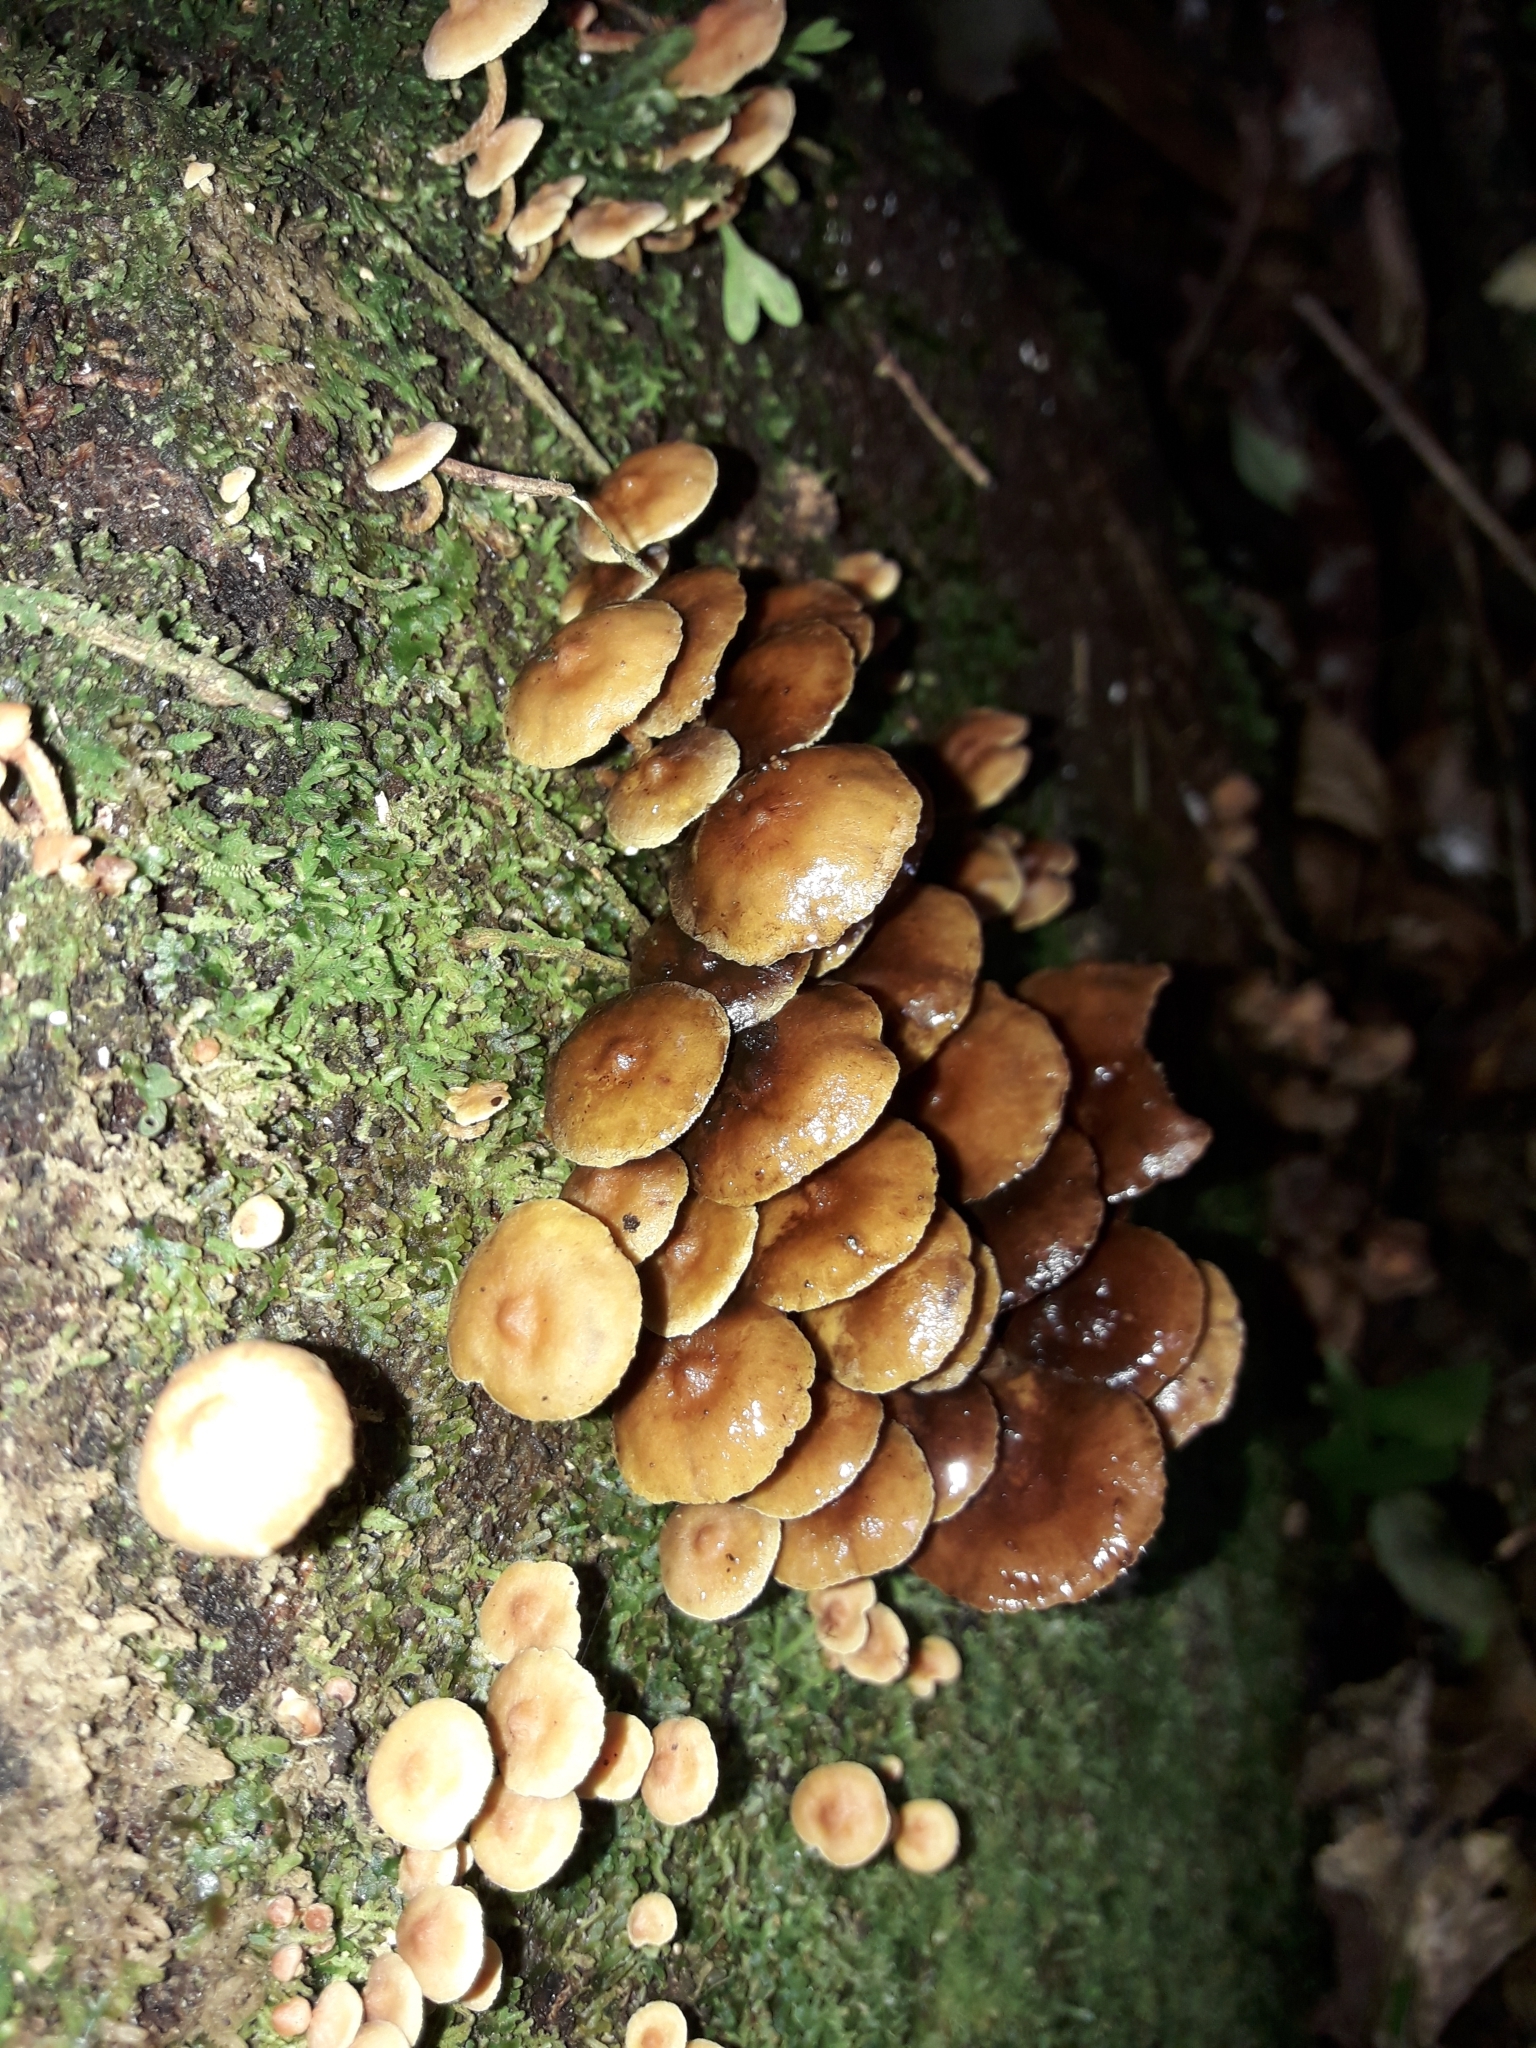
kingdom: Fungi
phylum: Basidiomycota
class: Agaricomycetes
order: Agaricales
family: Strophariaceae
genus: Hypholoma
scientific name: Hypholoma acutum
